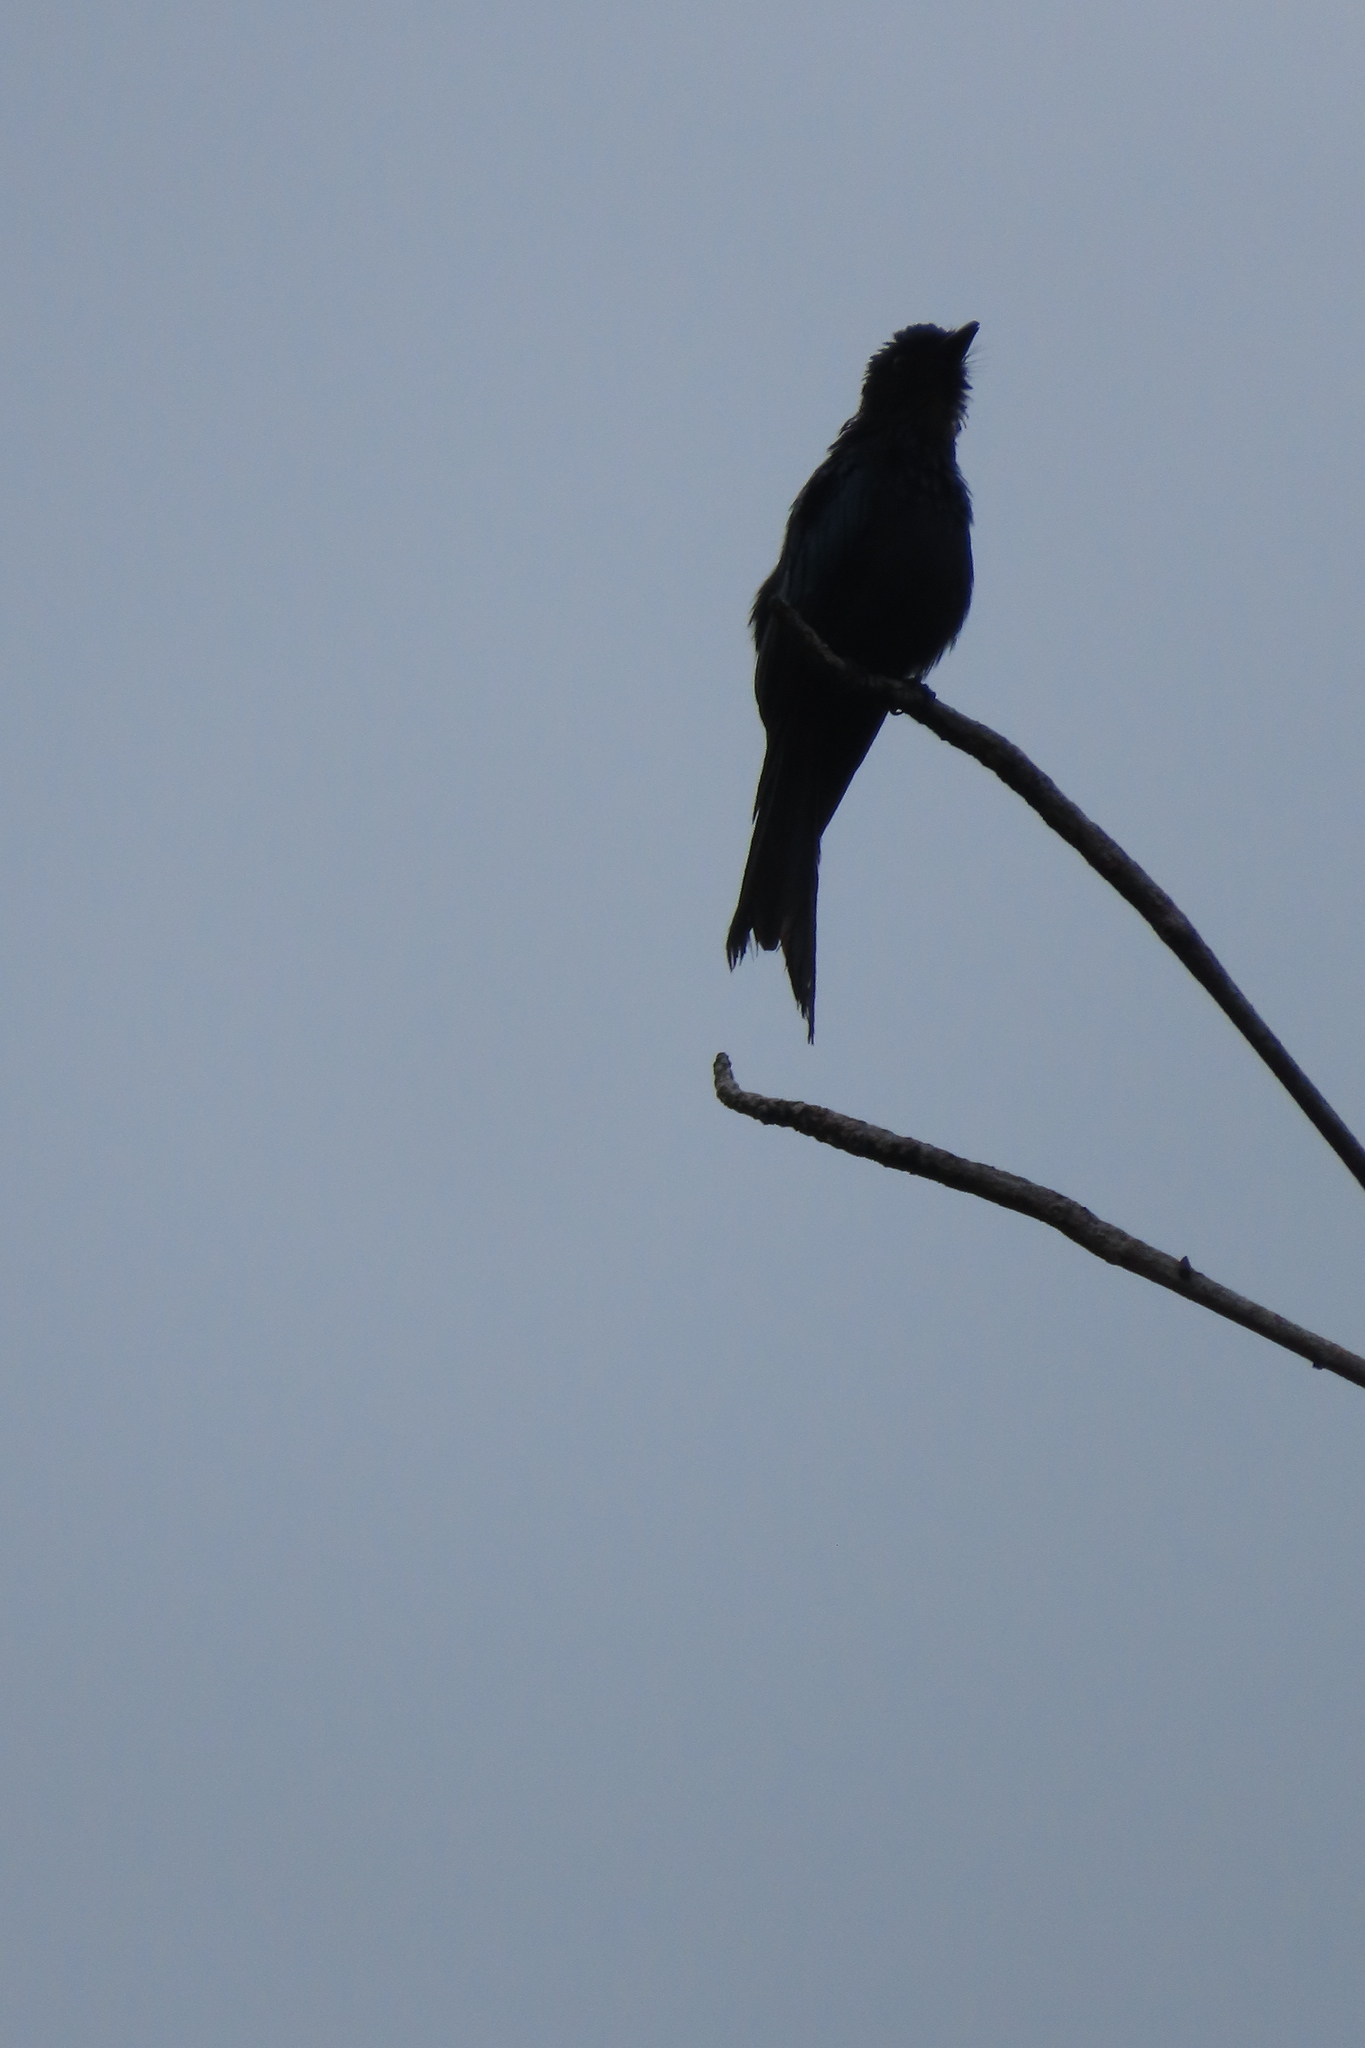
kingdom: Animalia
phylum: Chordata
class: Aves
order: Passeriformes
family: Dicruridae
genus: Dicrurus
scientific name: Dicrurus macrocercus
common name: Black drongo
